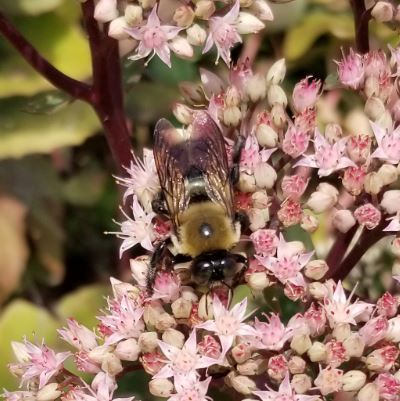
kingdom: Animalia
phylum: Arthropoda
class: Insecta
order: Hymenoptera
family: Apidae
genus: Xylocopa
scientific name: Xylocopa virginica
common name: Carpenter bee
